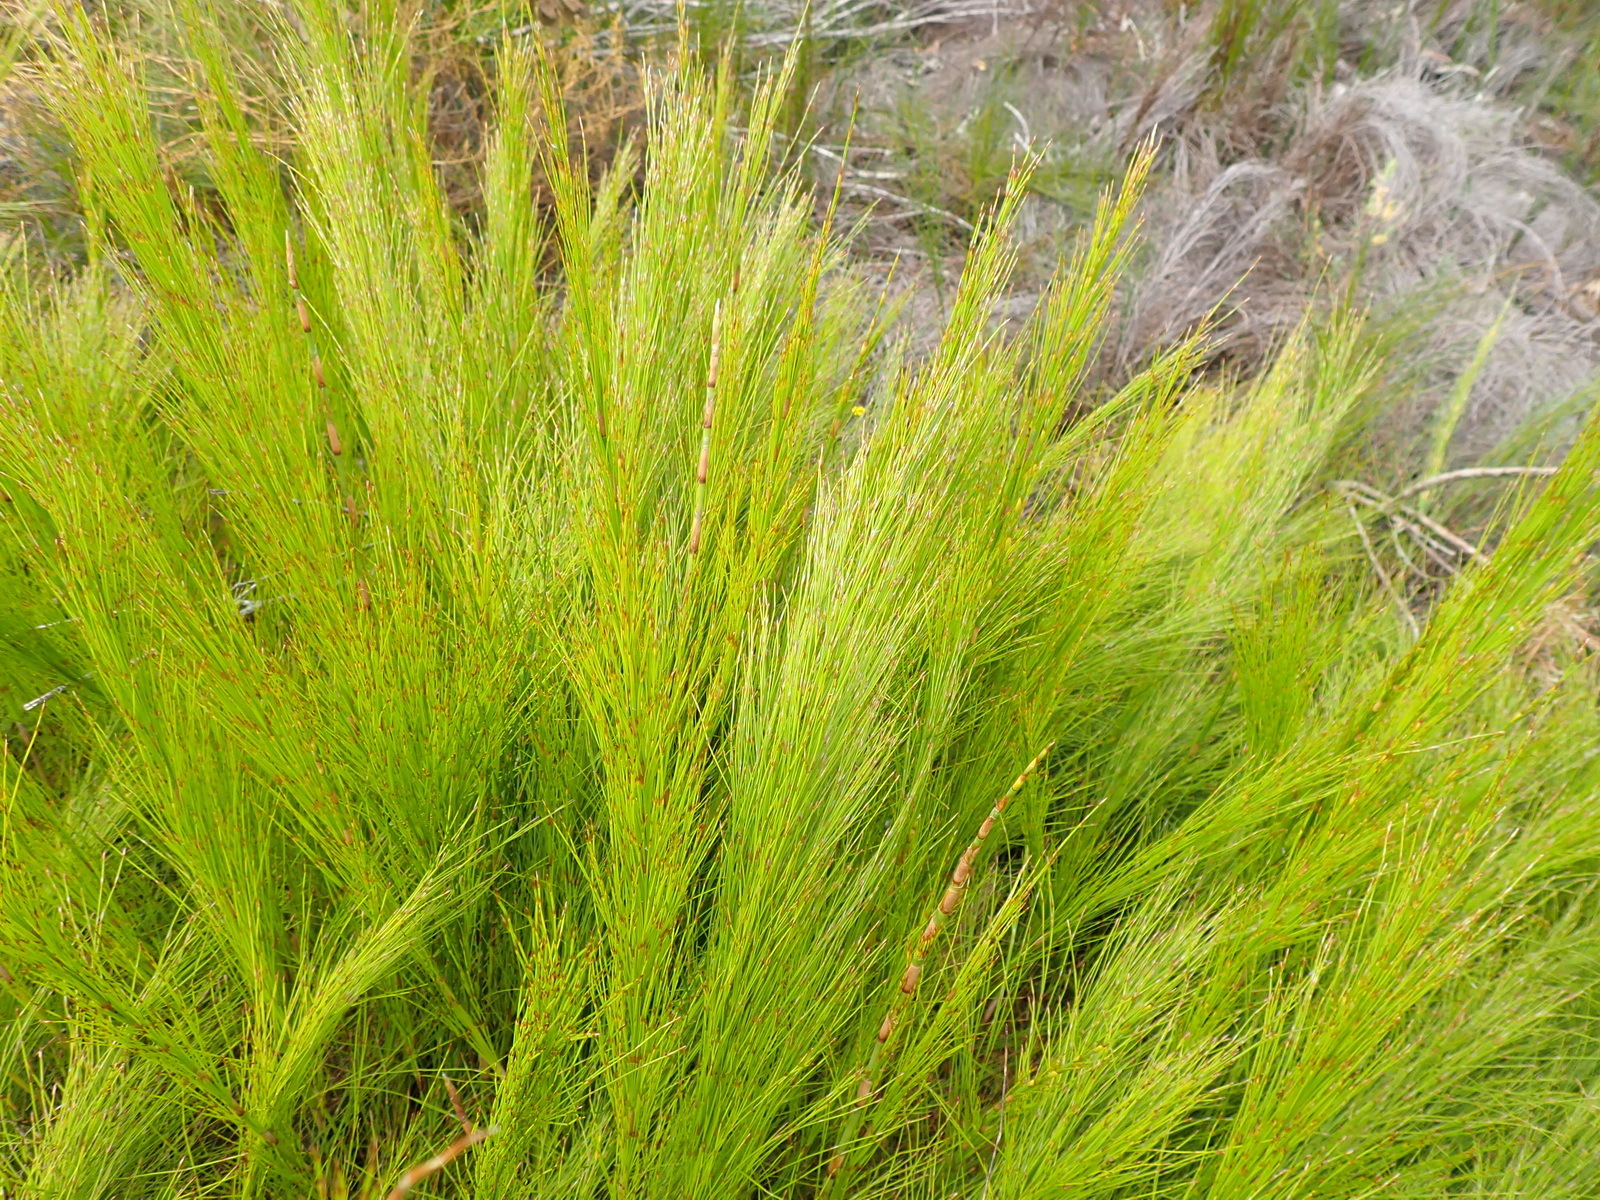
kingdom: Plantae
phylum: Tracheophyta
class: Liliopsida
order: Poales
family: Restionaceae
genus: Restio
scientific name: Restio leptoclados
